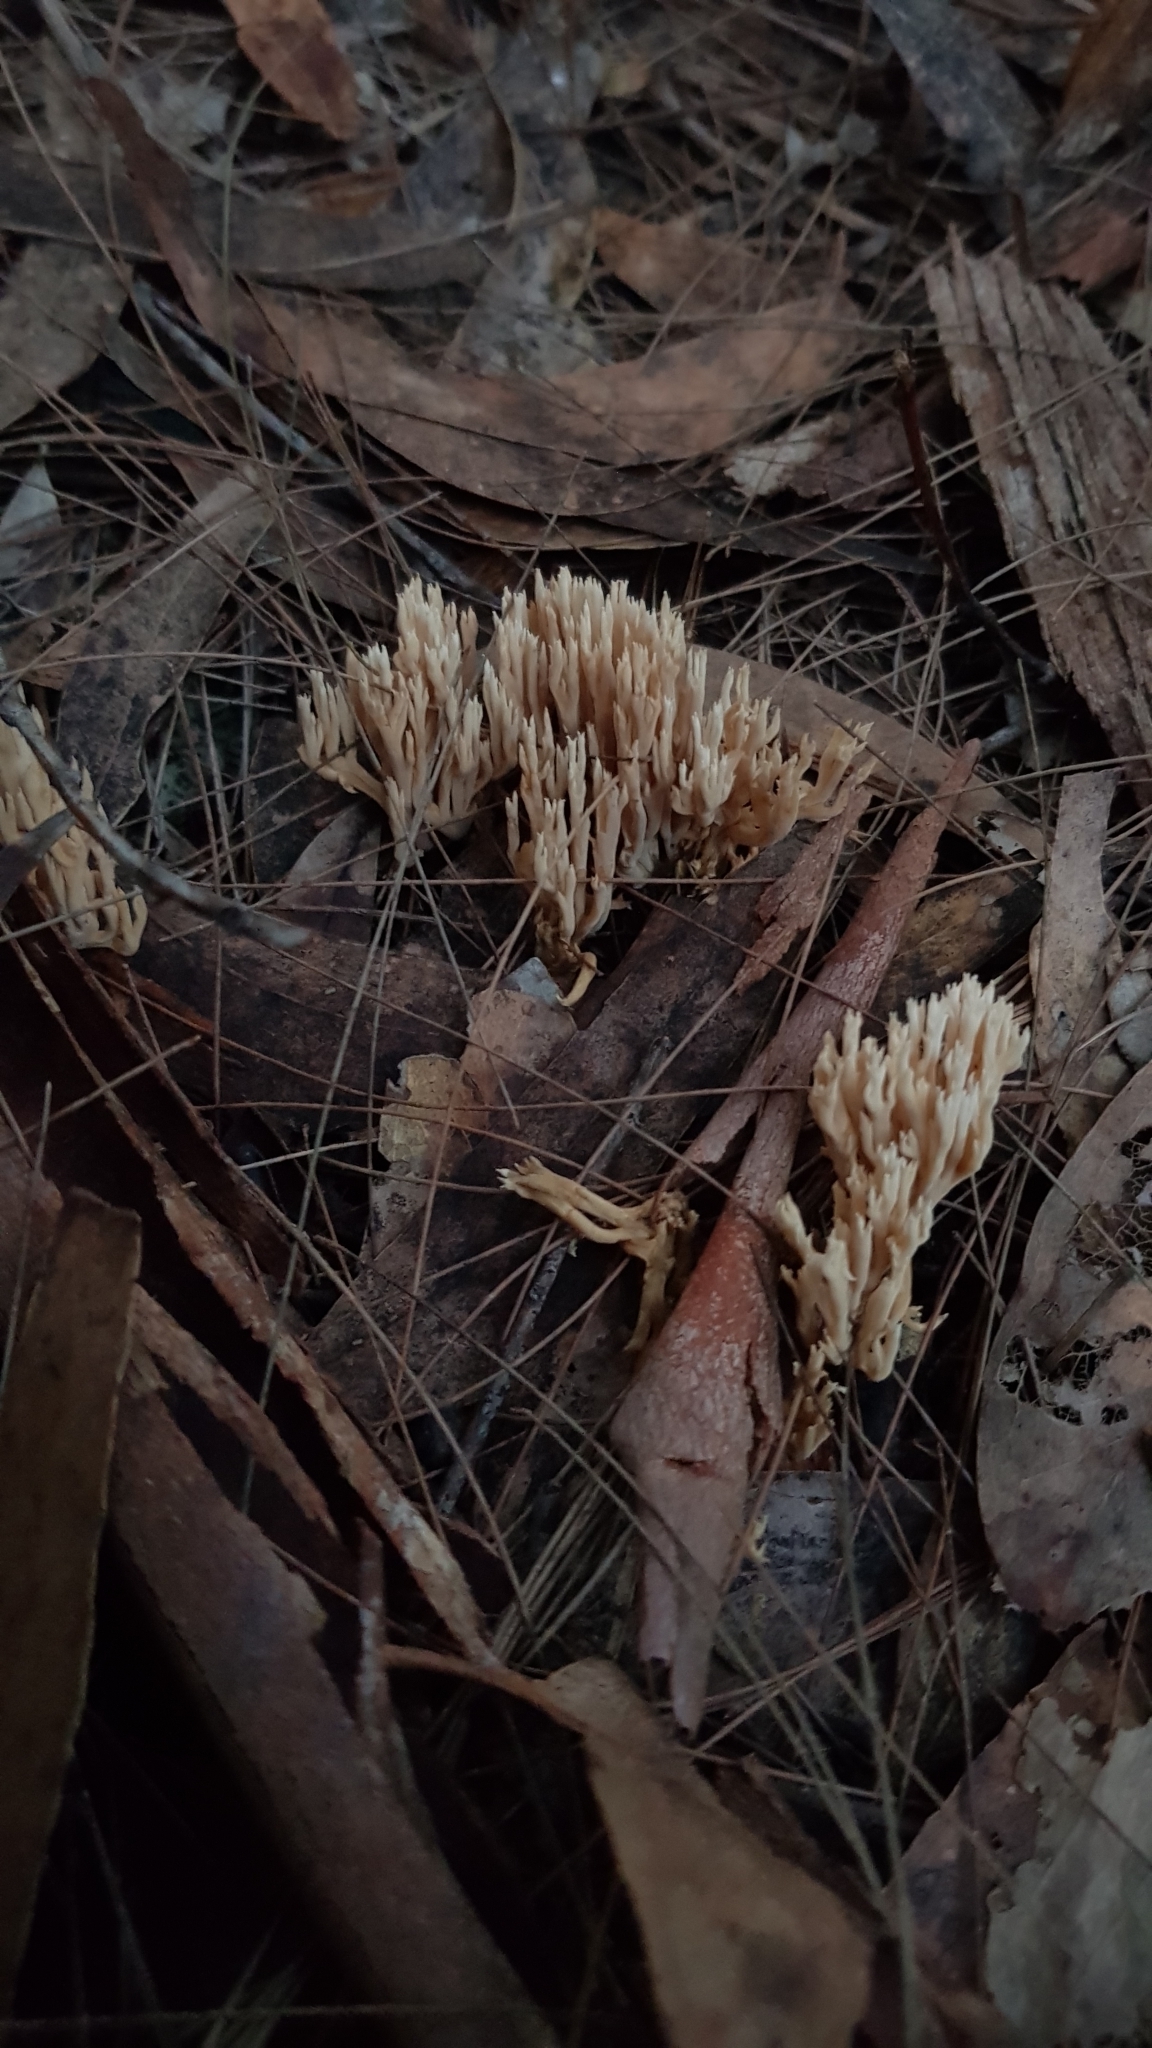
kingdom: Fungi
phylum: Basidiomycota
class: Agaricomycetes
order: Gomphales
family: Gomphaceae
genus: Ramaria
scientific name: Ramaria filicicola
